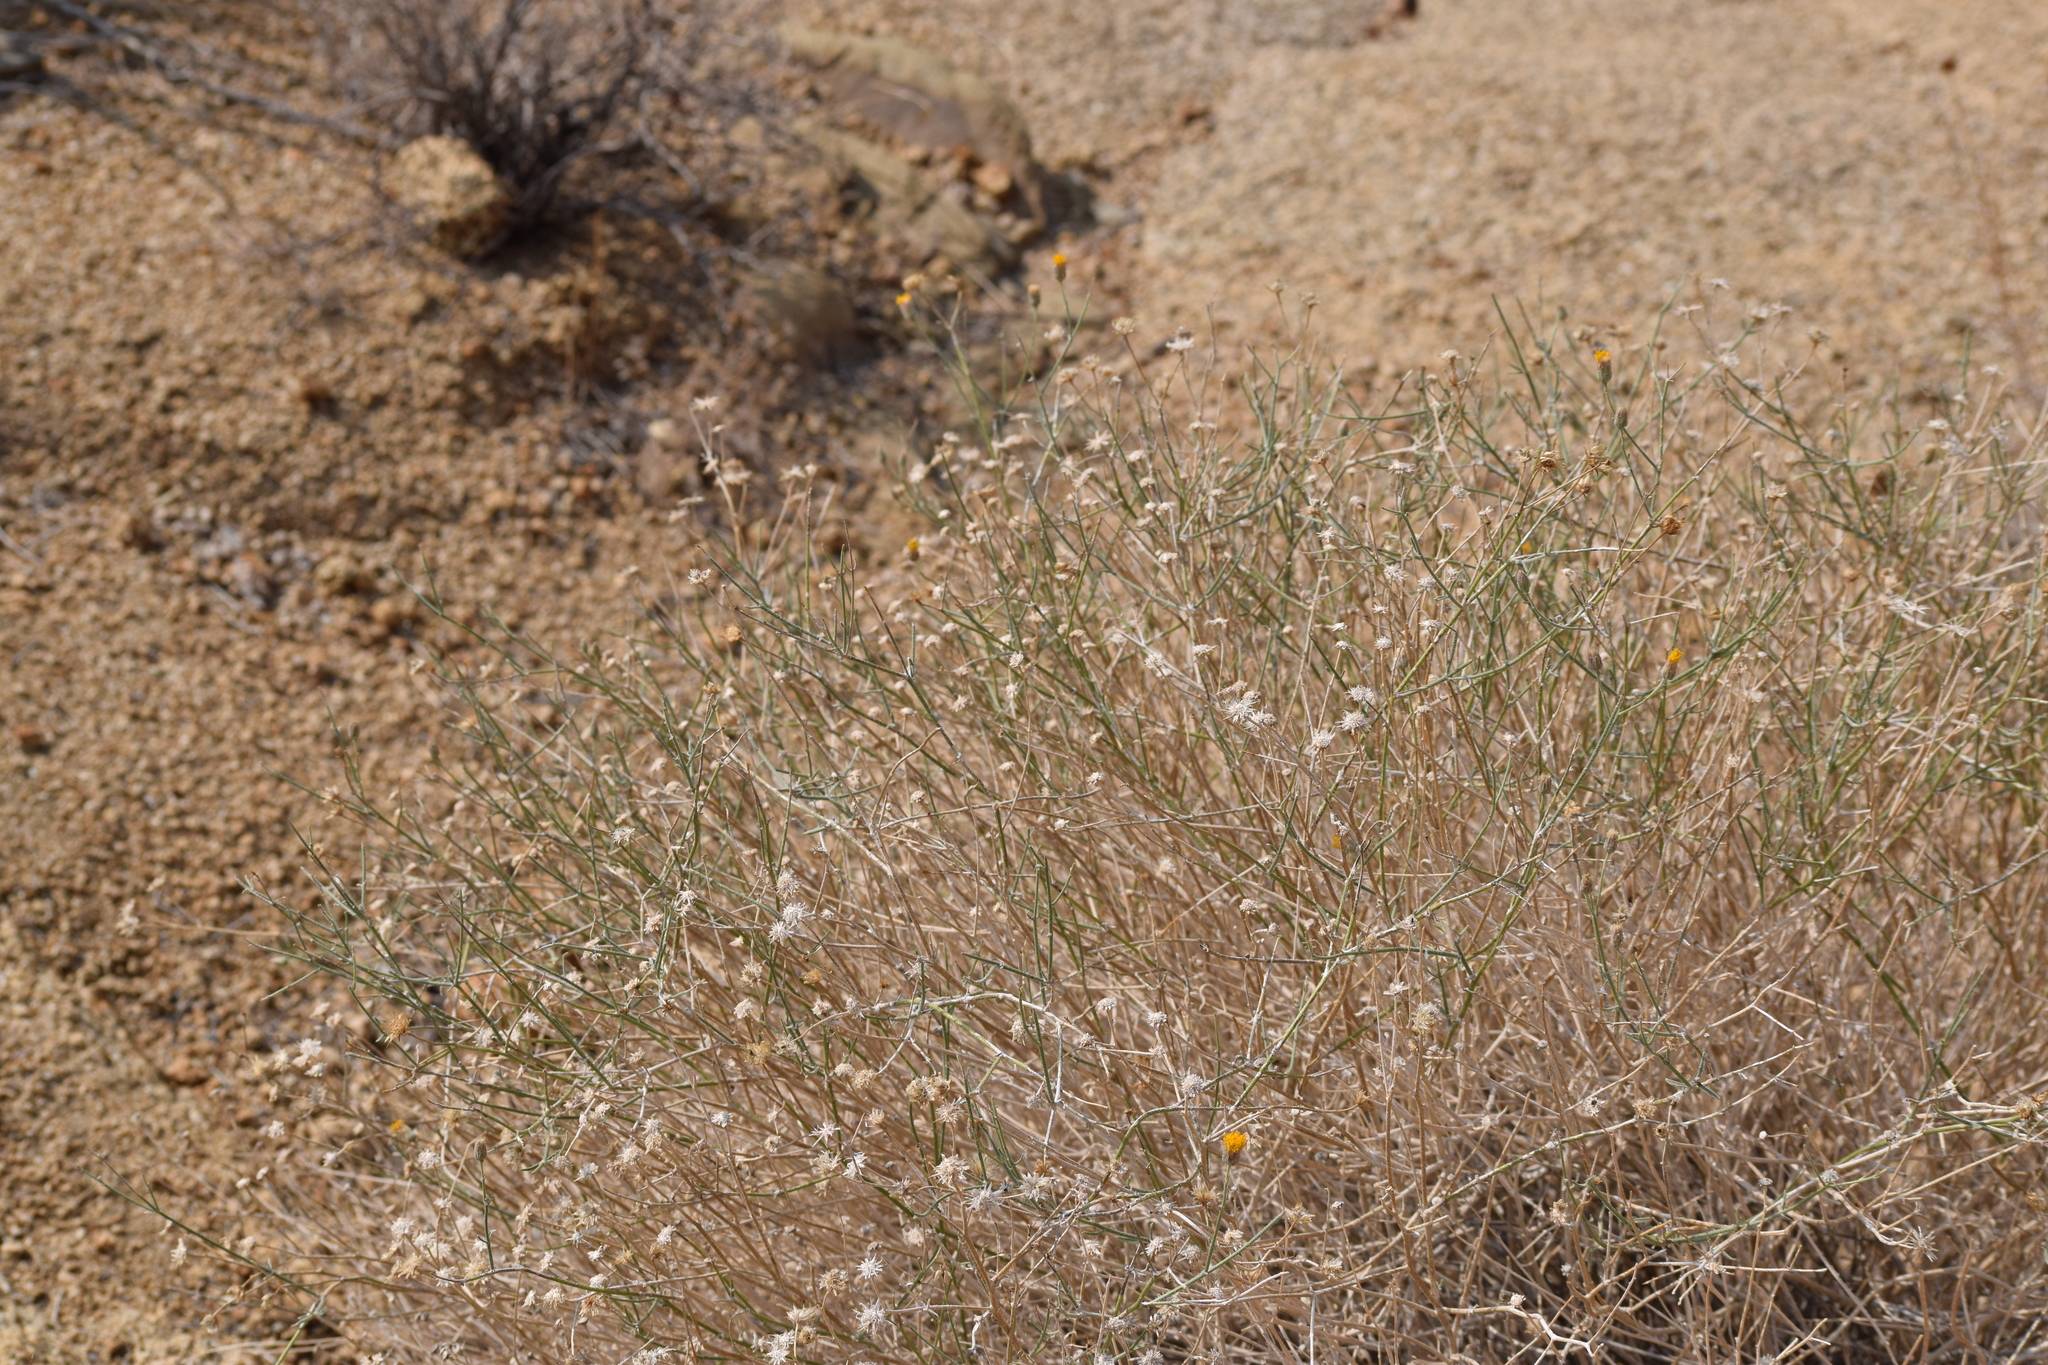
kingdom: Plantae
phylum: Tracheophyta
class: Magnoliopsida
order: Asterales
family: Asteraceae
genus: Bebbia
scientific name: Bebbia juncea
